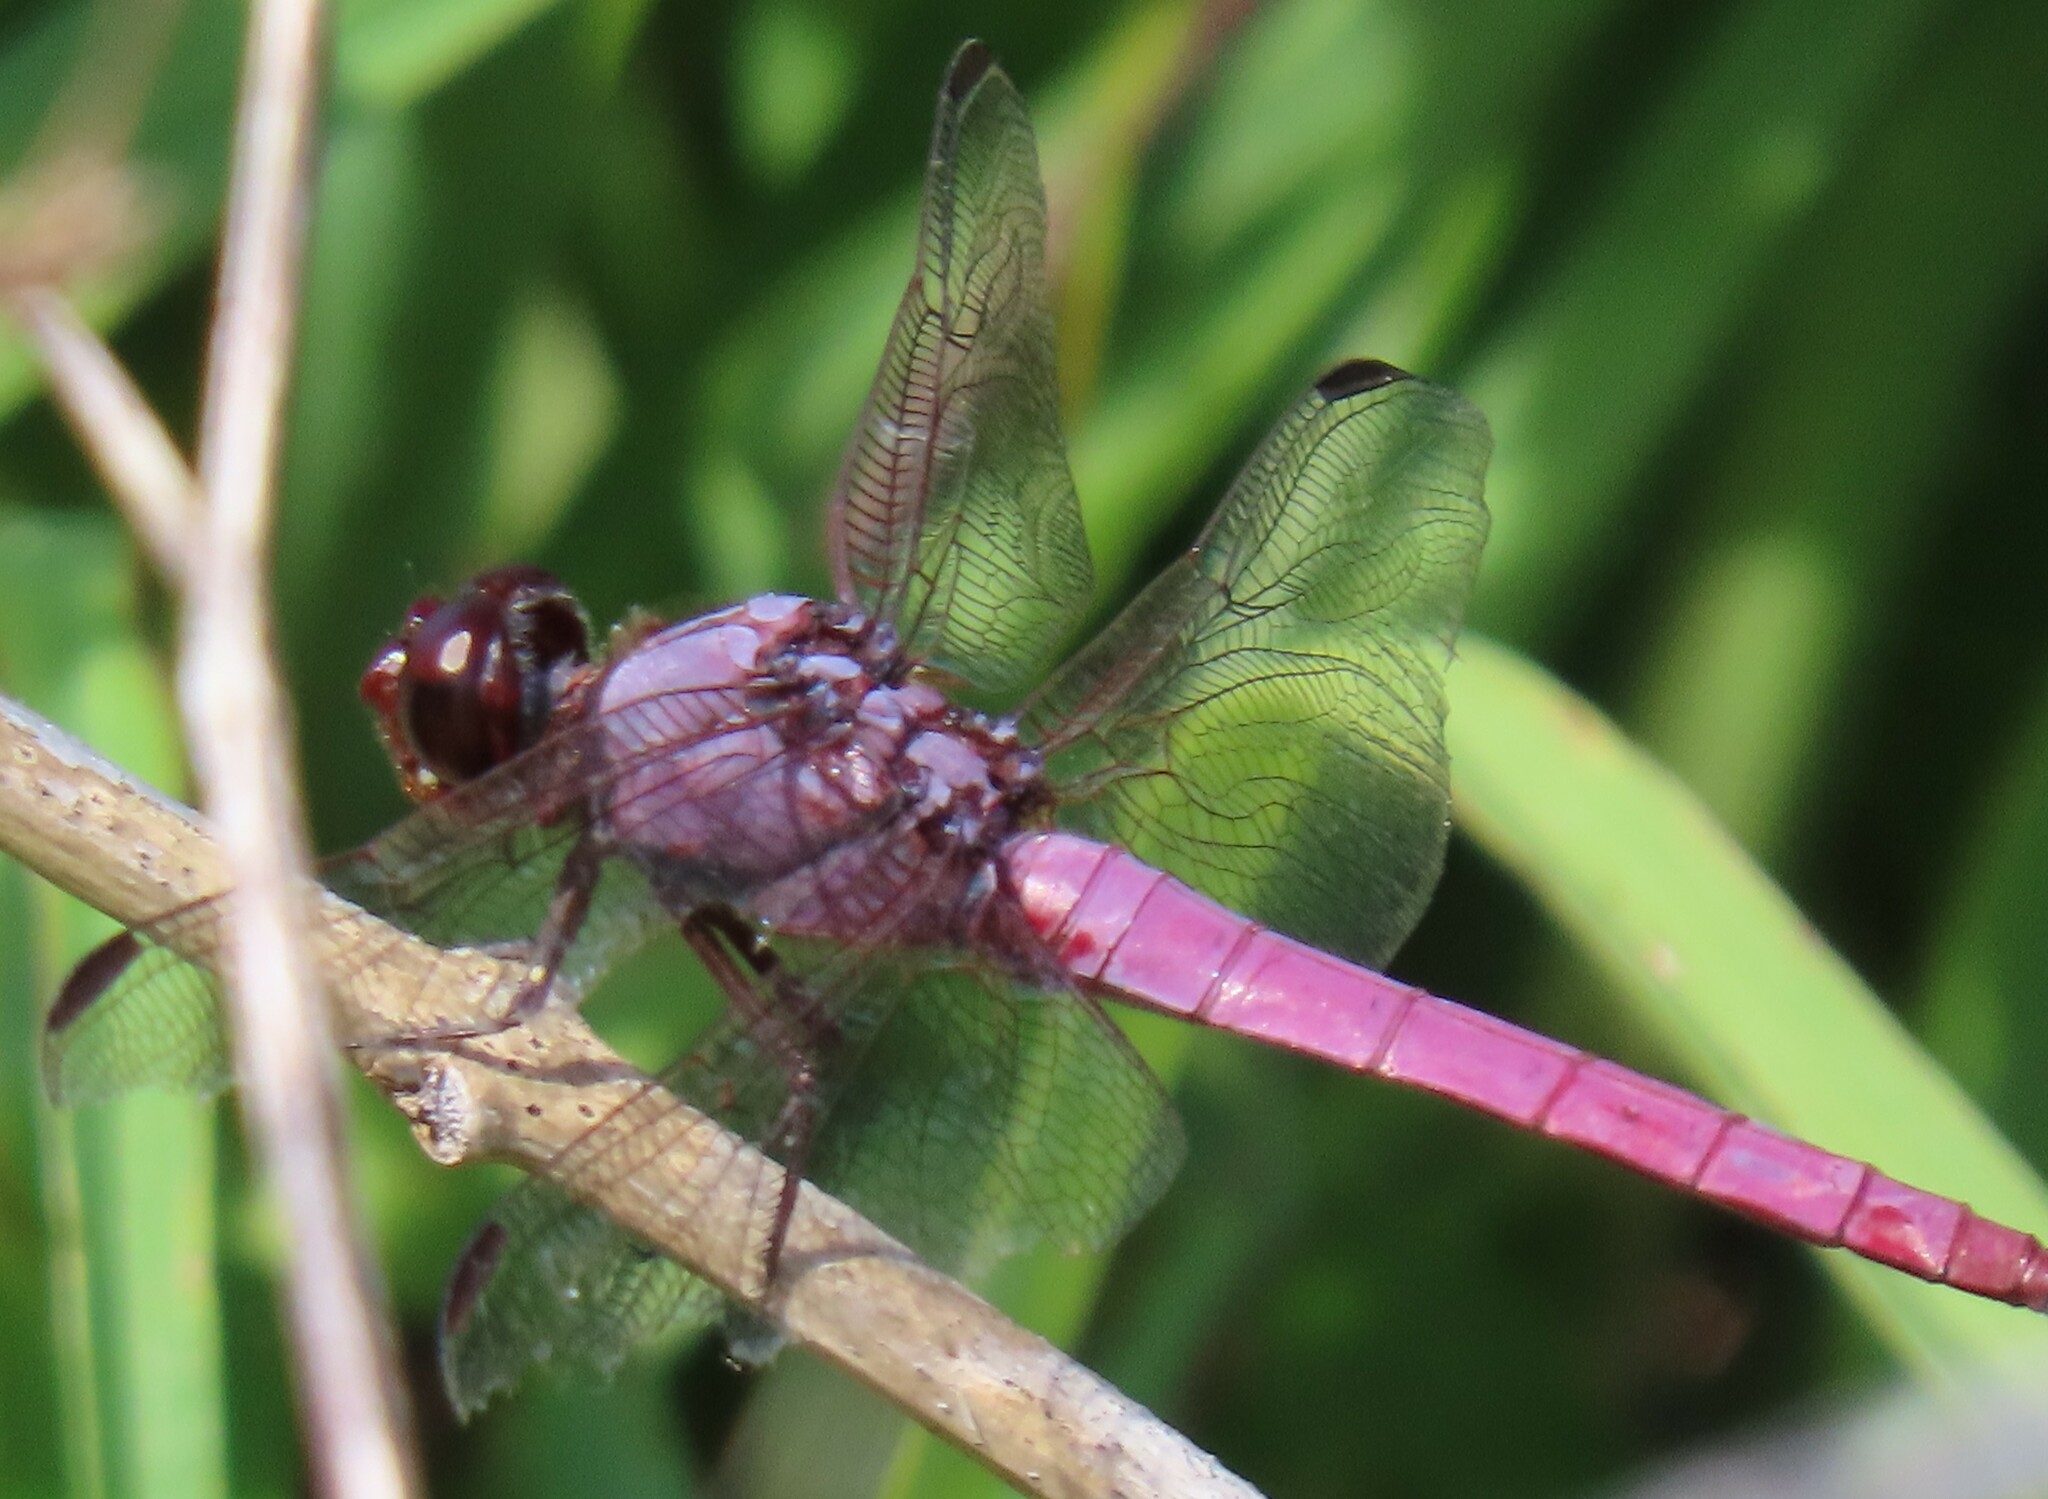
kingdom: Animalia
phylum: Arthropoda
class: Insecta
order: Odonata
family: Libellulidae
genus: Orthemis
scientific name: Orthemis ferruginea
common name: Roseate skimmer
